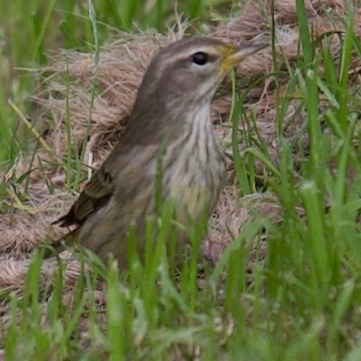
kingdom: Animalia
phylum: Chordata
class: Aves
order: Passeriformes
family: Parulidae
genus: Setophaga
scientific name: Setophaga palmarum
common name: Palm warbler
